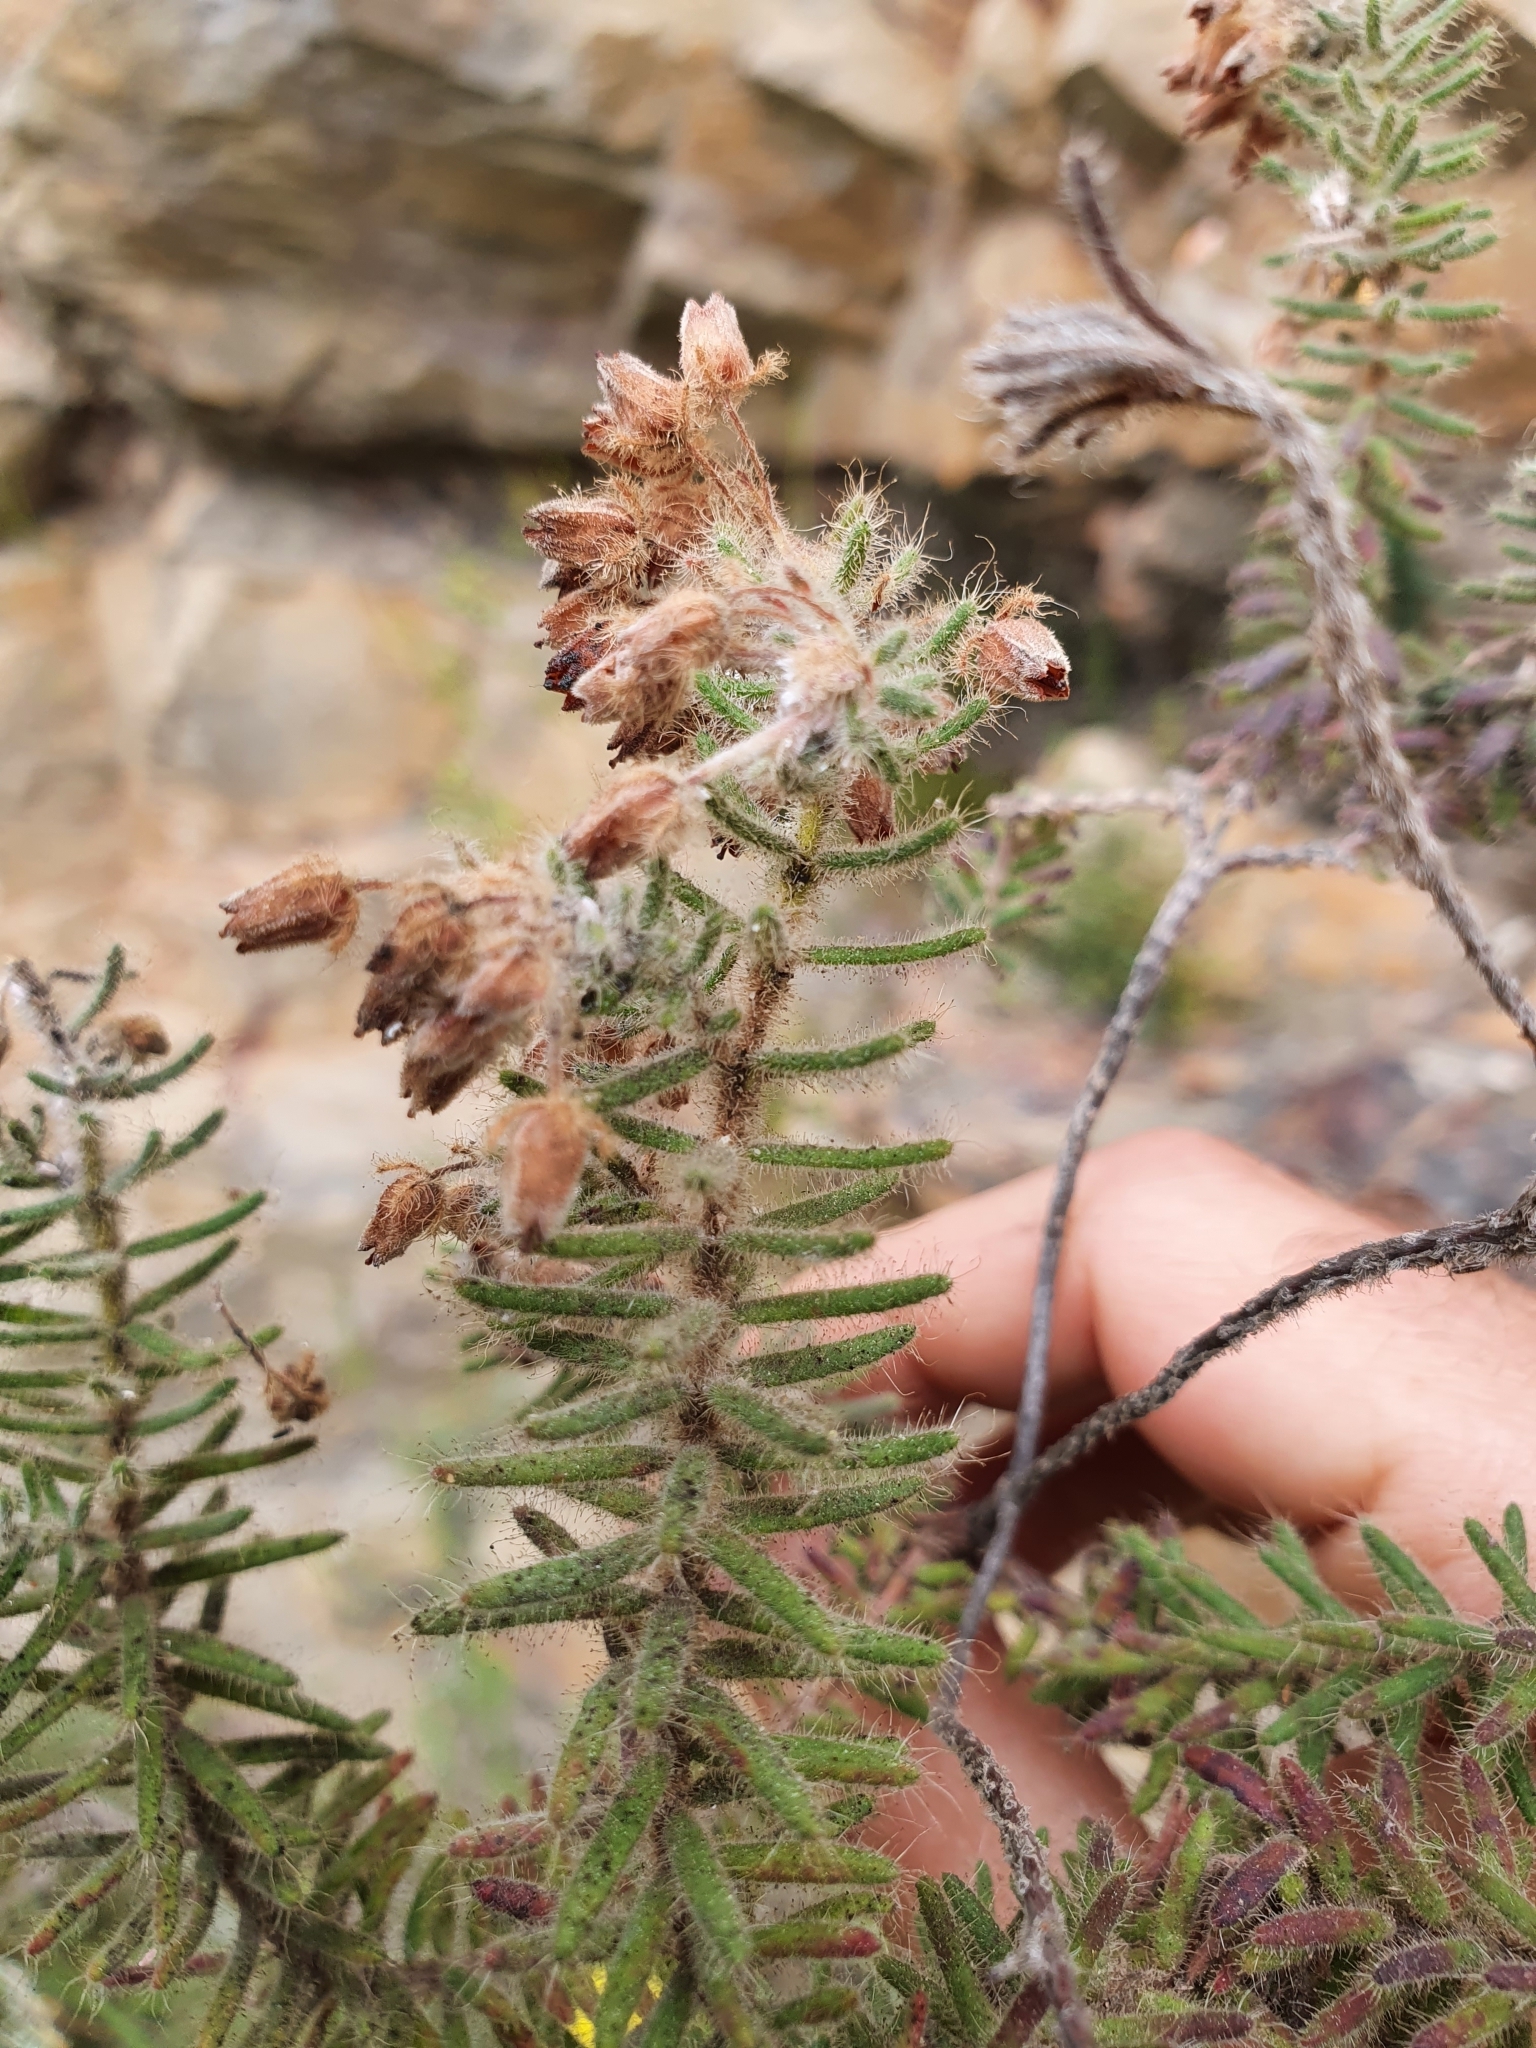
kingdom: Plantae
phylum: Tracheophyta
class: Magnoliopsida
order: Ericales
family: Ericaceae
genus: Erica
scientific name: Erica perlata
